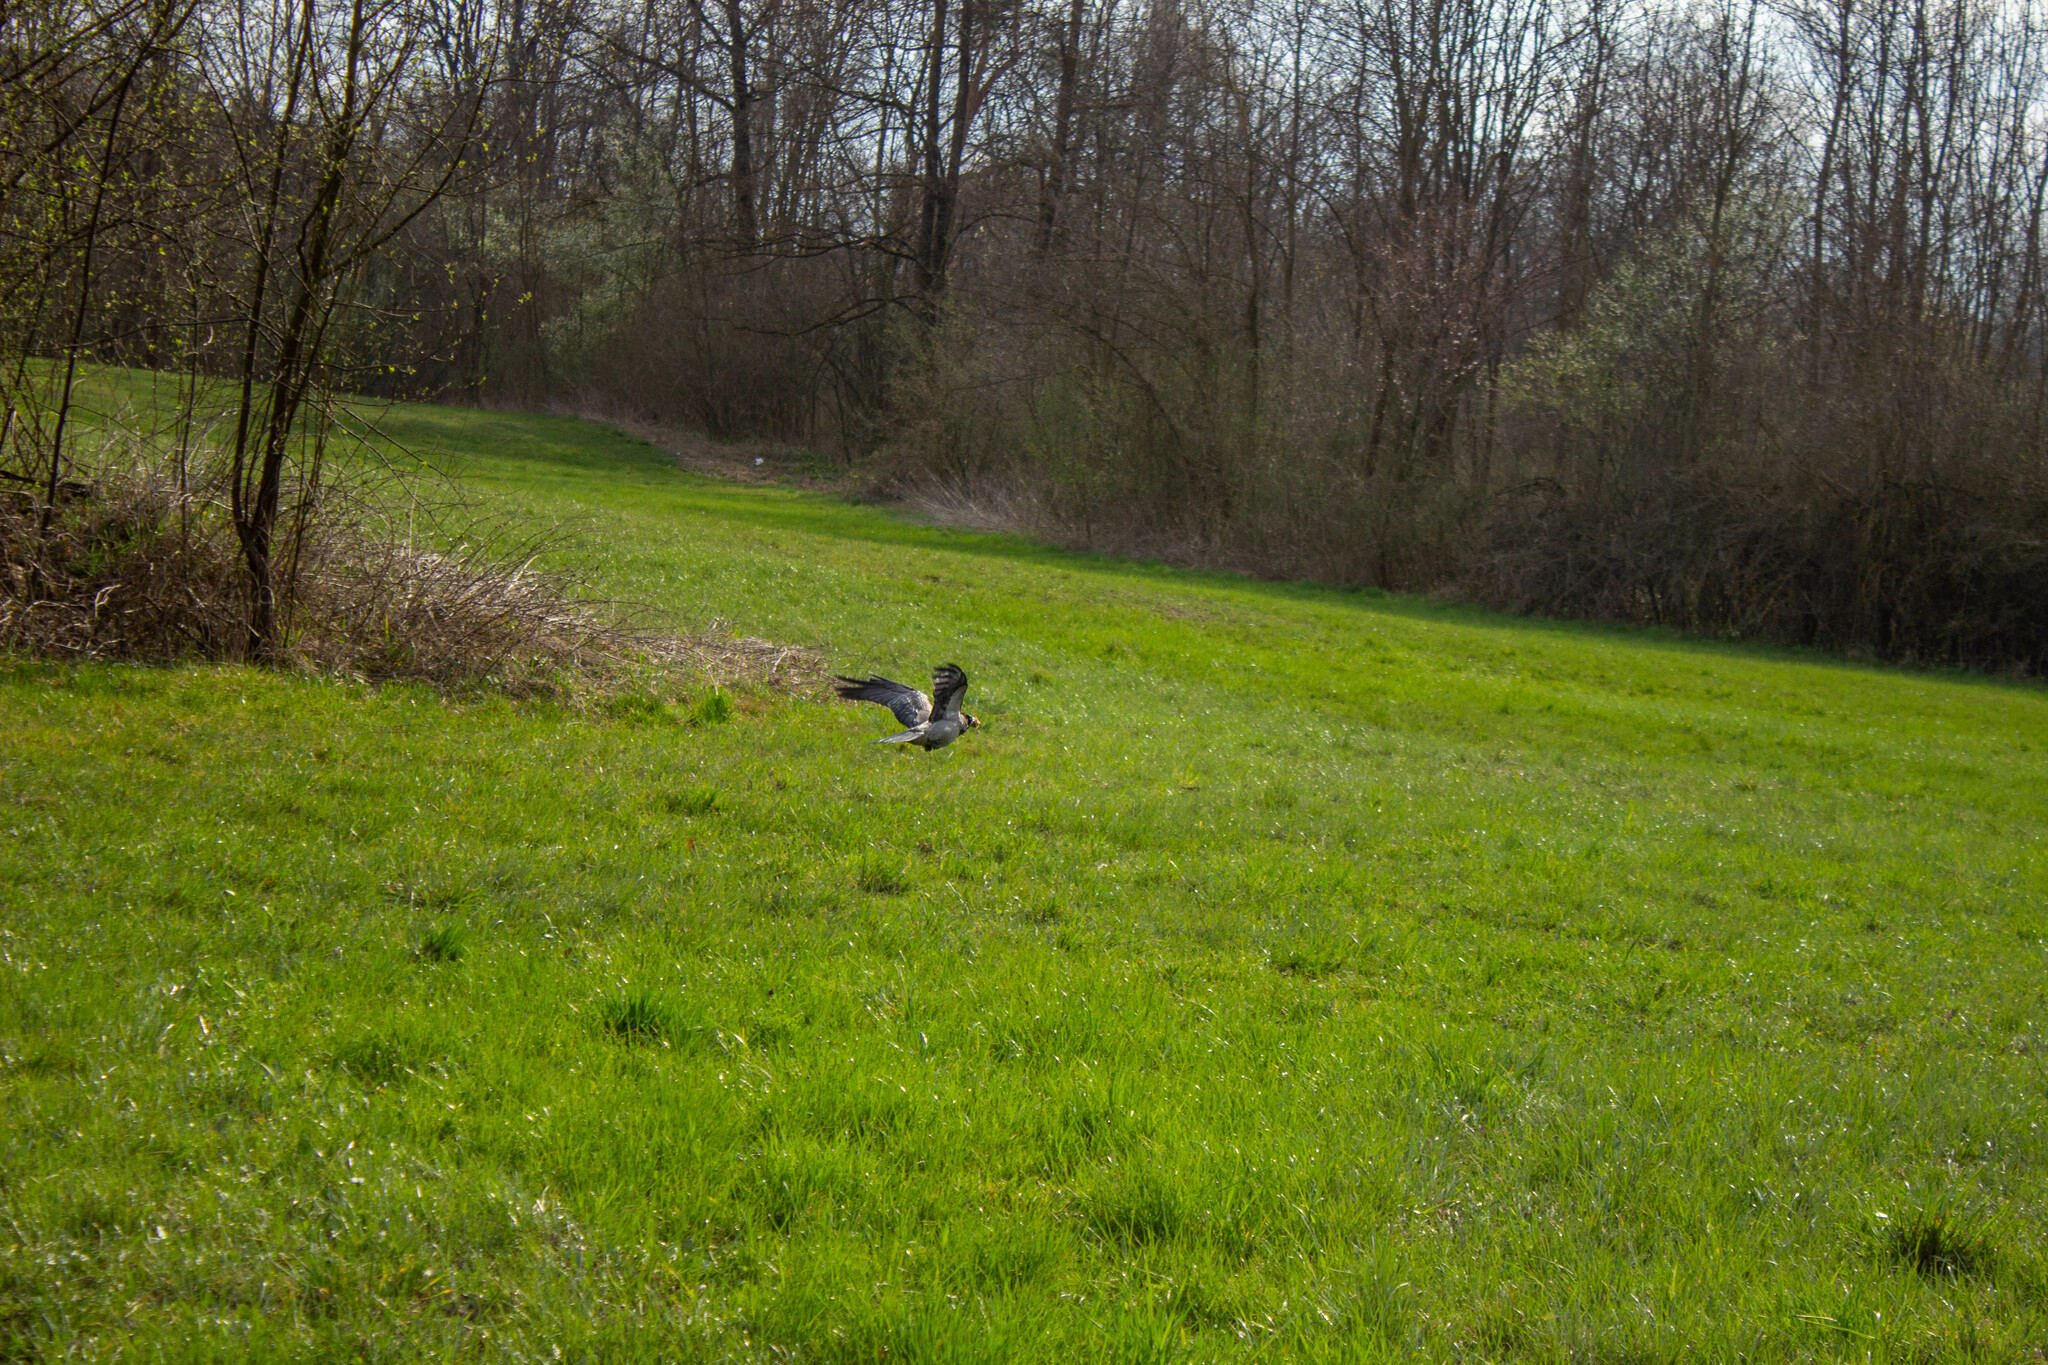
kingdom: Animalia
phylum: Chordata
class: Aves
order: Passeriformes
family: Corvidae
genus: Corvus
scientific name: Corvus cornix
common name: Hooded crow
